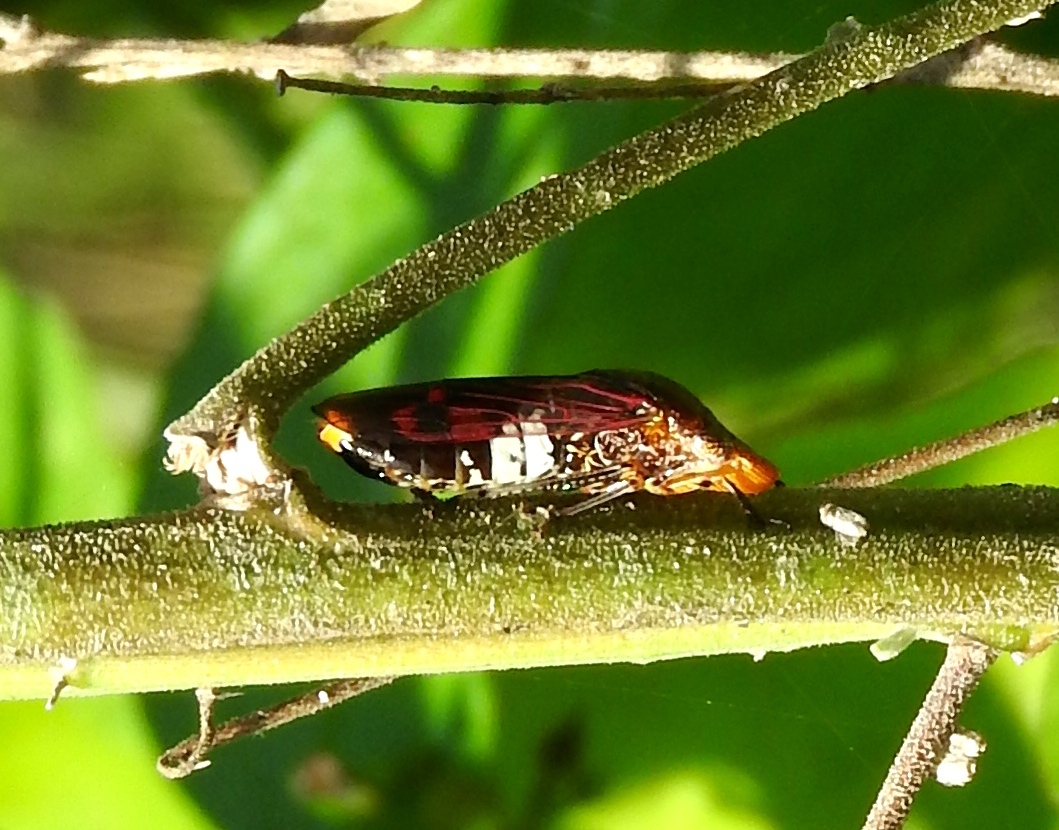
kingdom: Animalia
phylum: Arthropoda
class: Insecta
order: Hemiptera
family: Cicadellidae
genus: Homalodisca
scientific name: Homalodisca ichthyocephala
